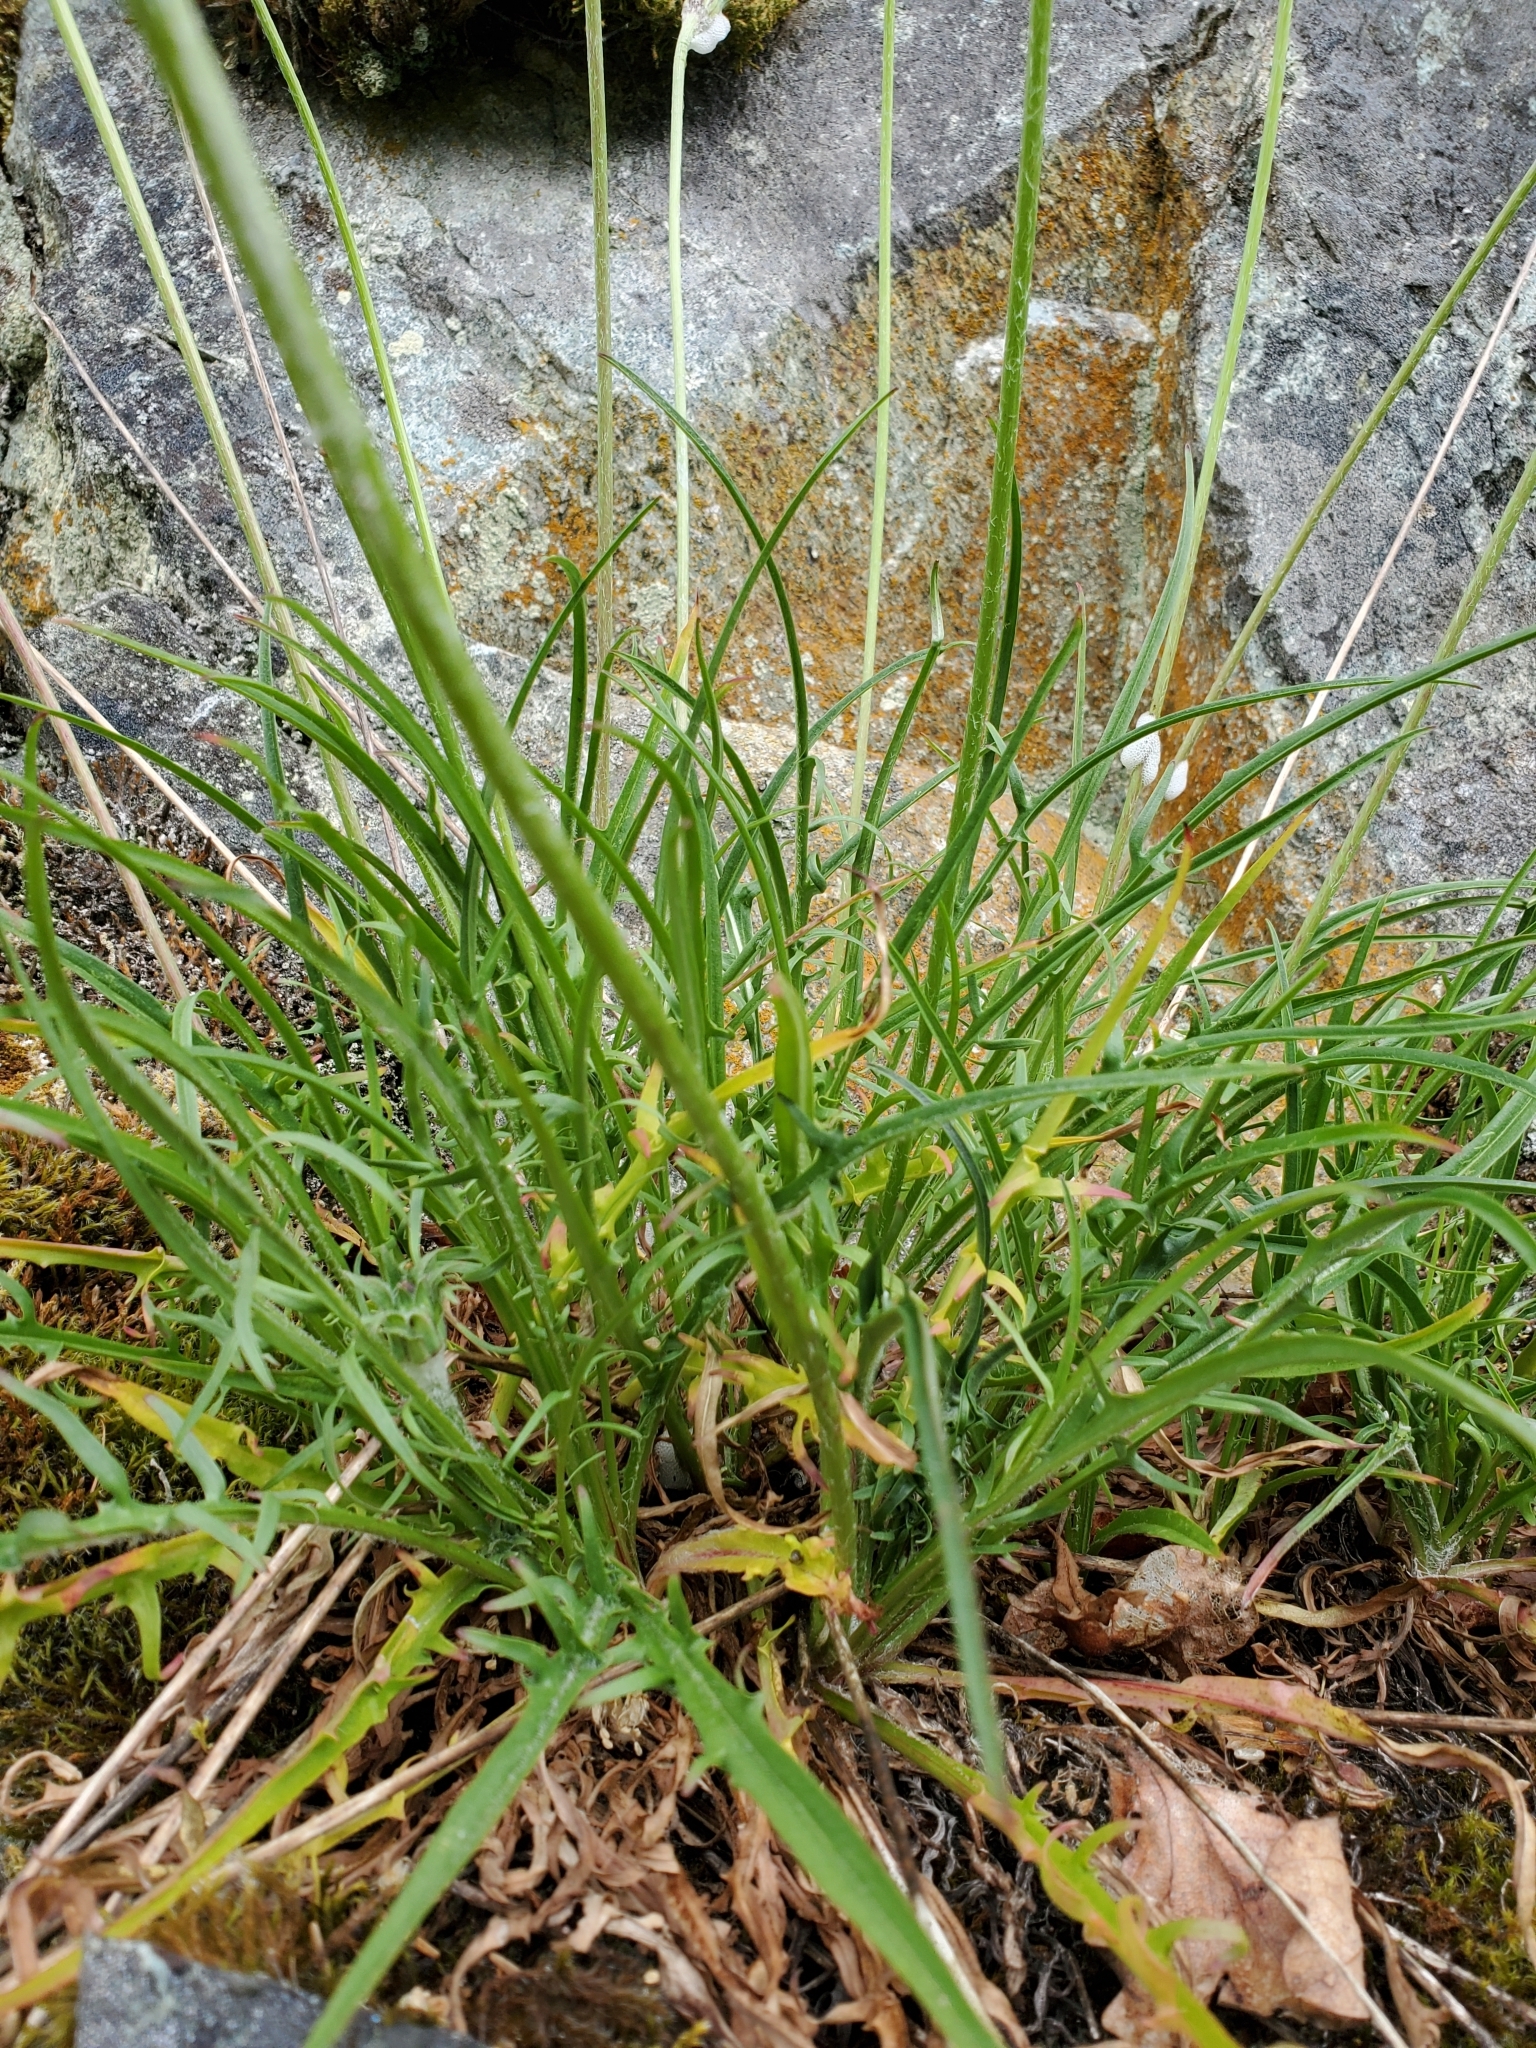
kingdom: Plantae
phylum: Tracheophyta
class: Magnoliopsida
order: Asterales
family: Asteraceae
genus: Agoseris
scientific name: Agoseris grandiflora
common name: Grassland agoseris
